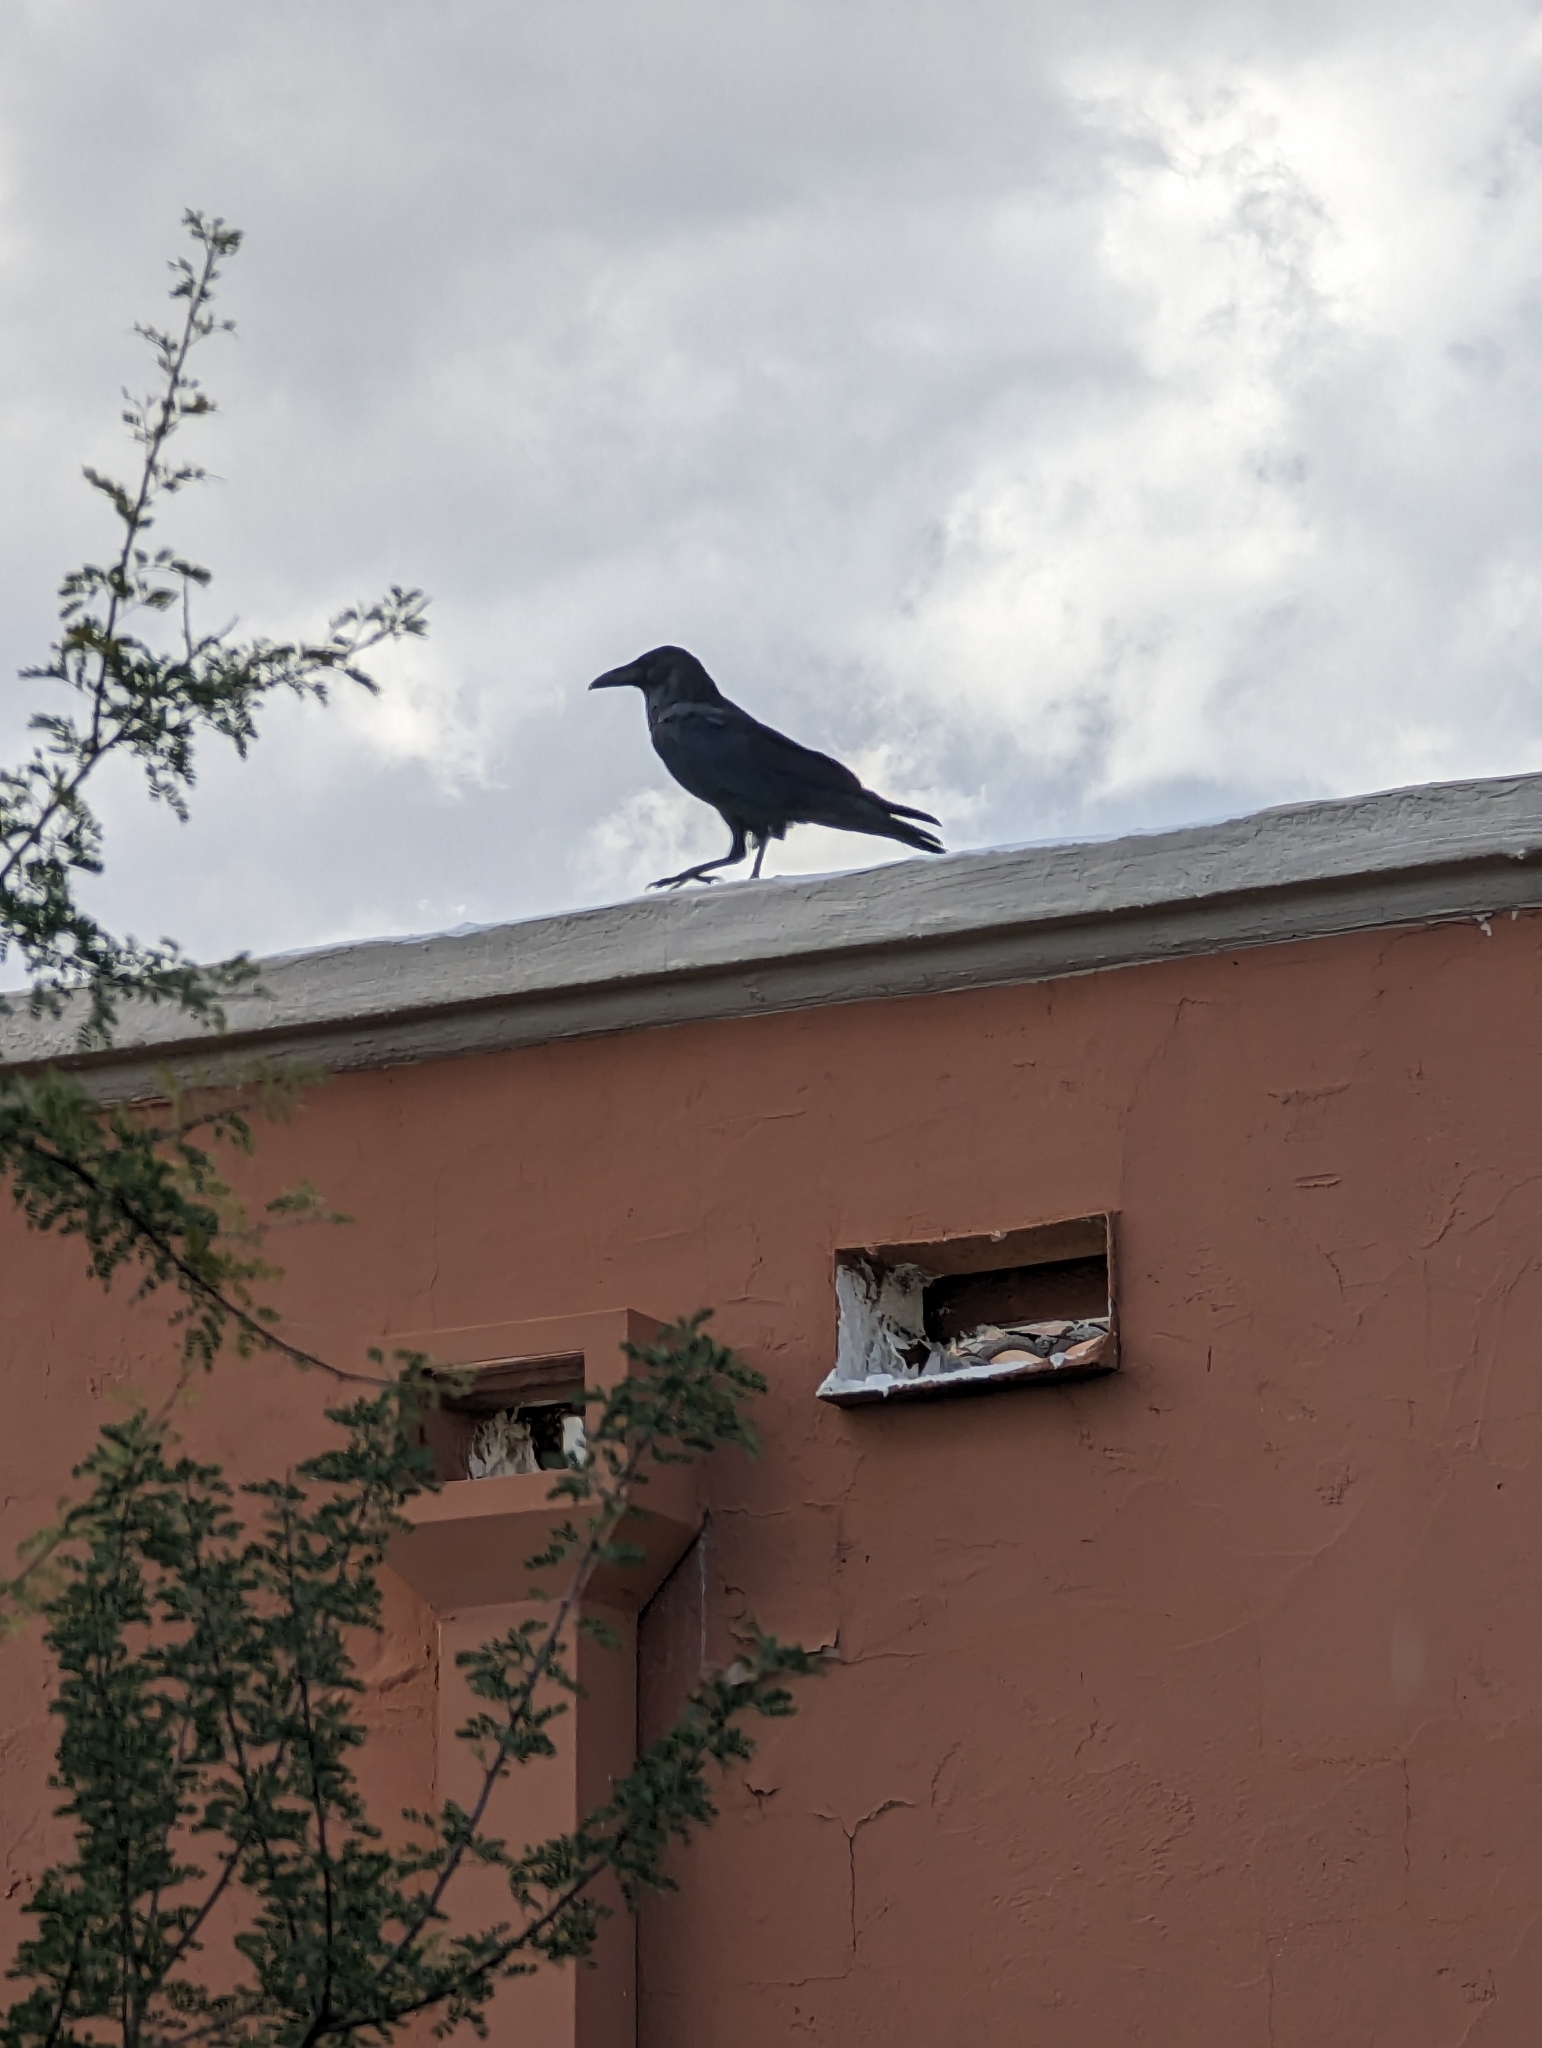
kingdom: Animalia
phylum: Chordata
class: Aves
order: Passeriformes
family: Corvidae
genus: Corvus
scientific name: Corvus corax
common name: Common raven
